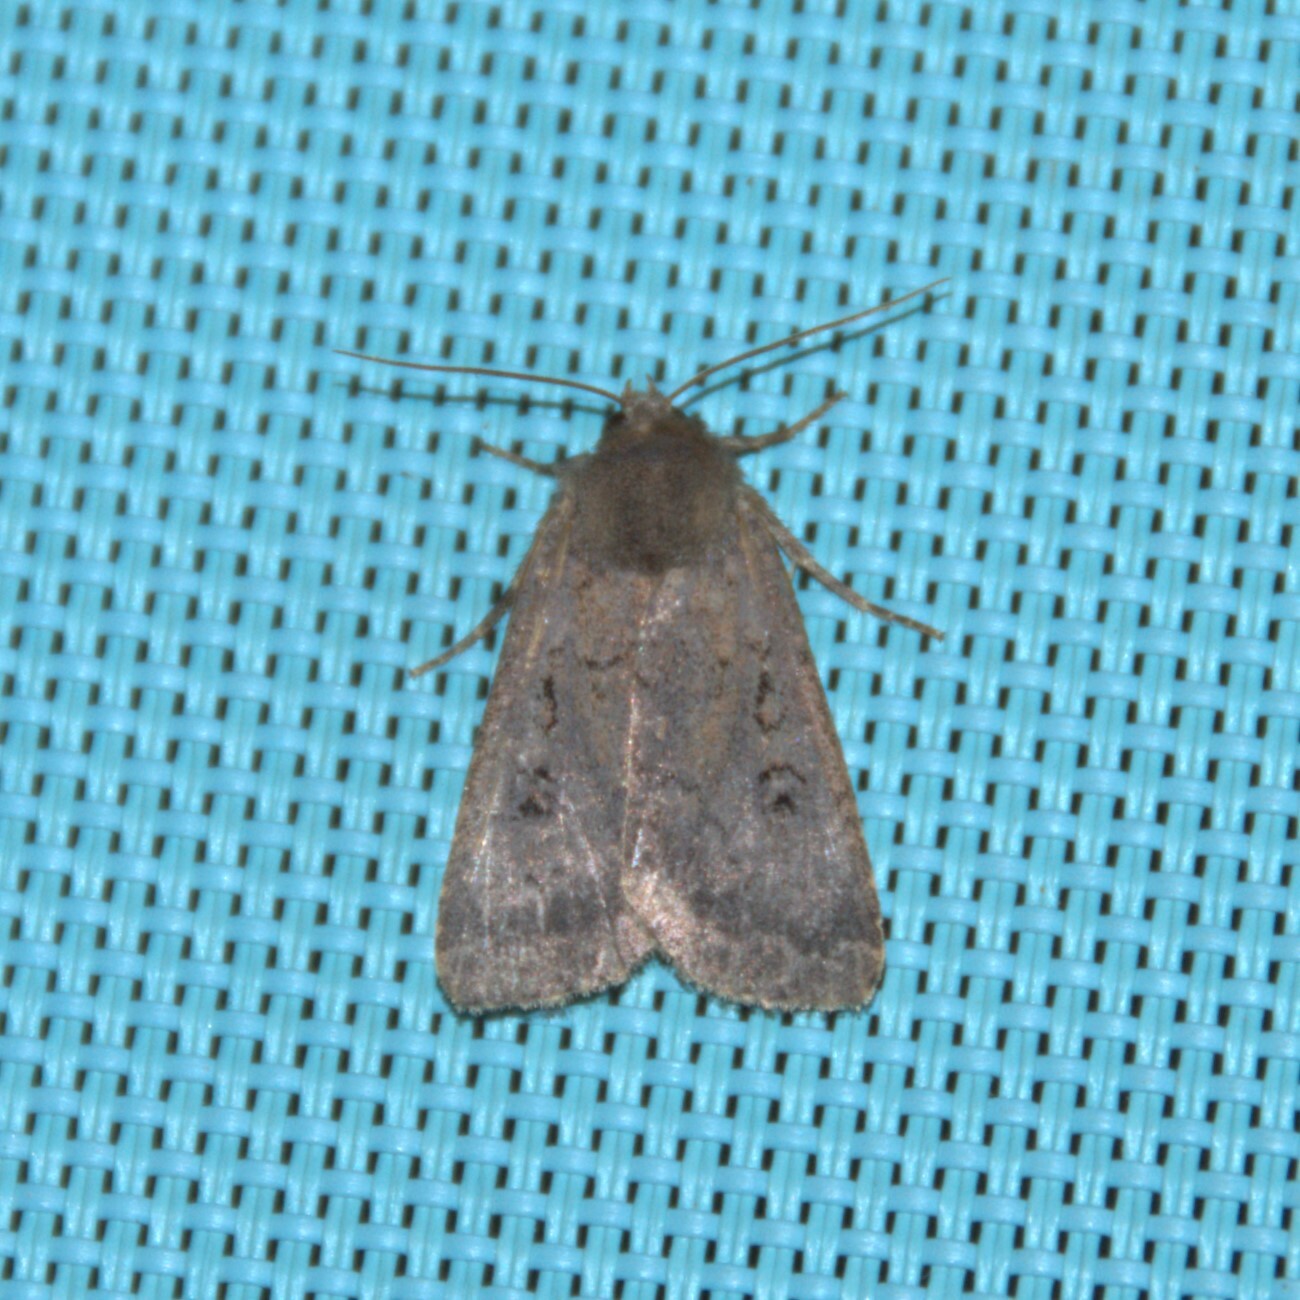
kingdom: Animalia
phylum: Arthropoda
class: Insecta
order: Lepidoptera
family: Noctuidae
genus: Graphiphora
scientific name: Graphiphora augur
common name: Double dart
